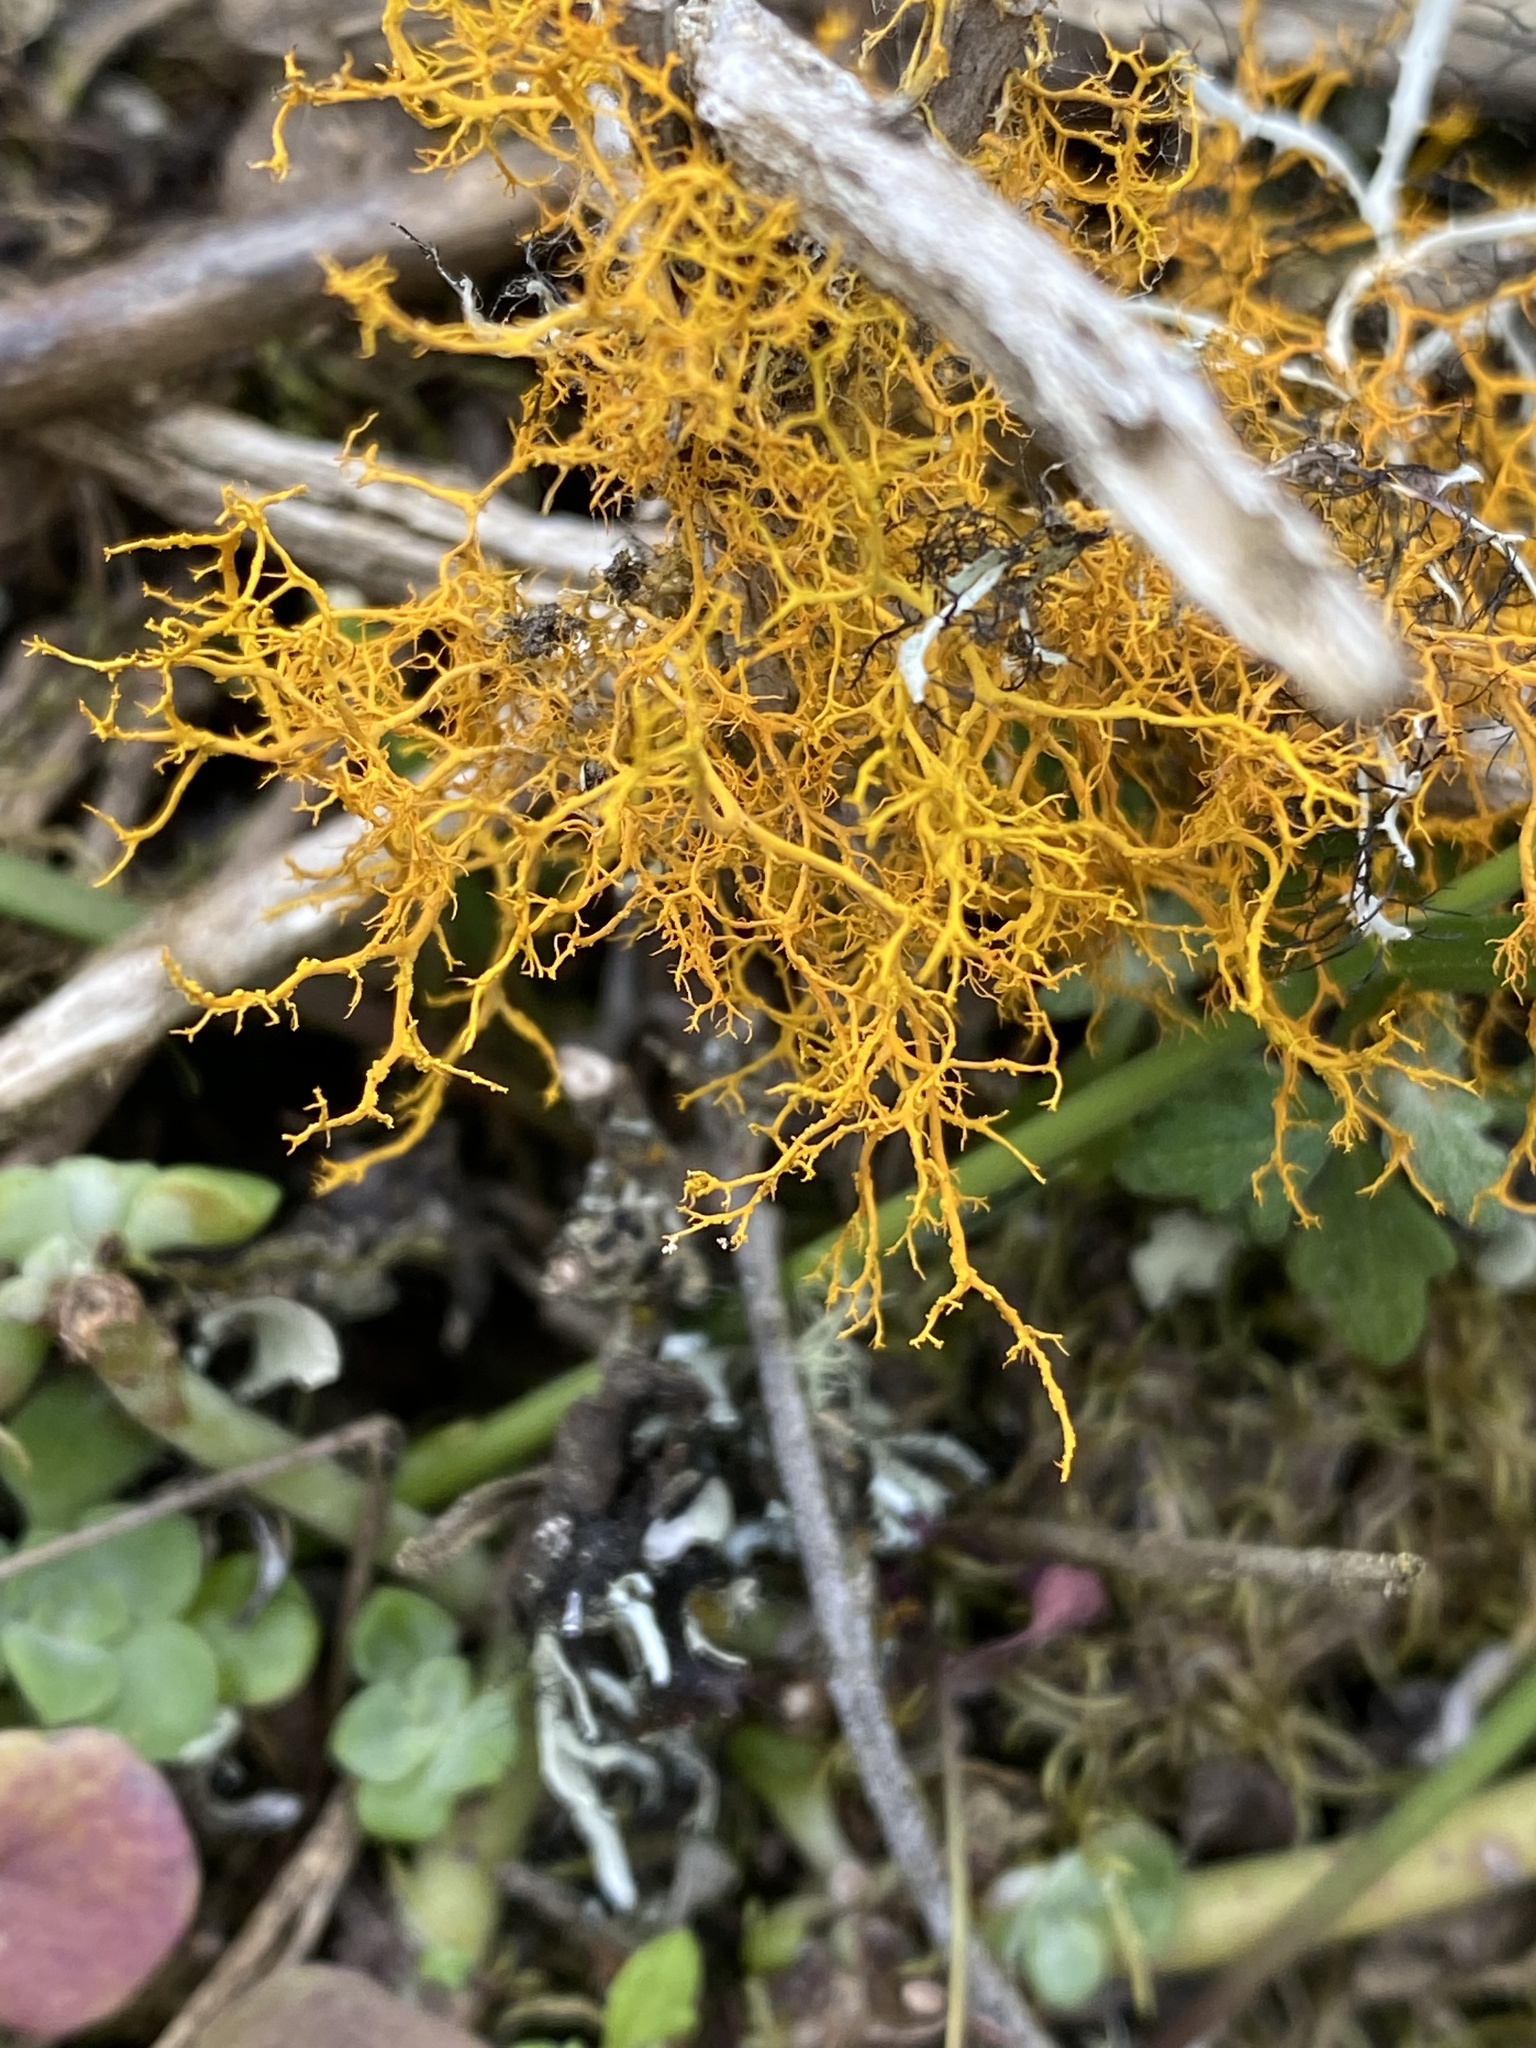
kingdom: Fungi
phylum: Ascomycota
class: Lecanoromycetes
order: Teloschistales
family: Teloschistaceae
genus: Teloschistes
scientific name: Teloschistes flavicans
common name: Golden hair-lichen
